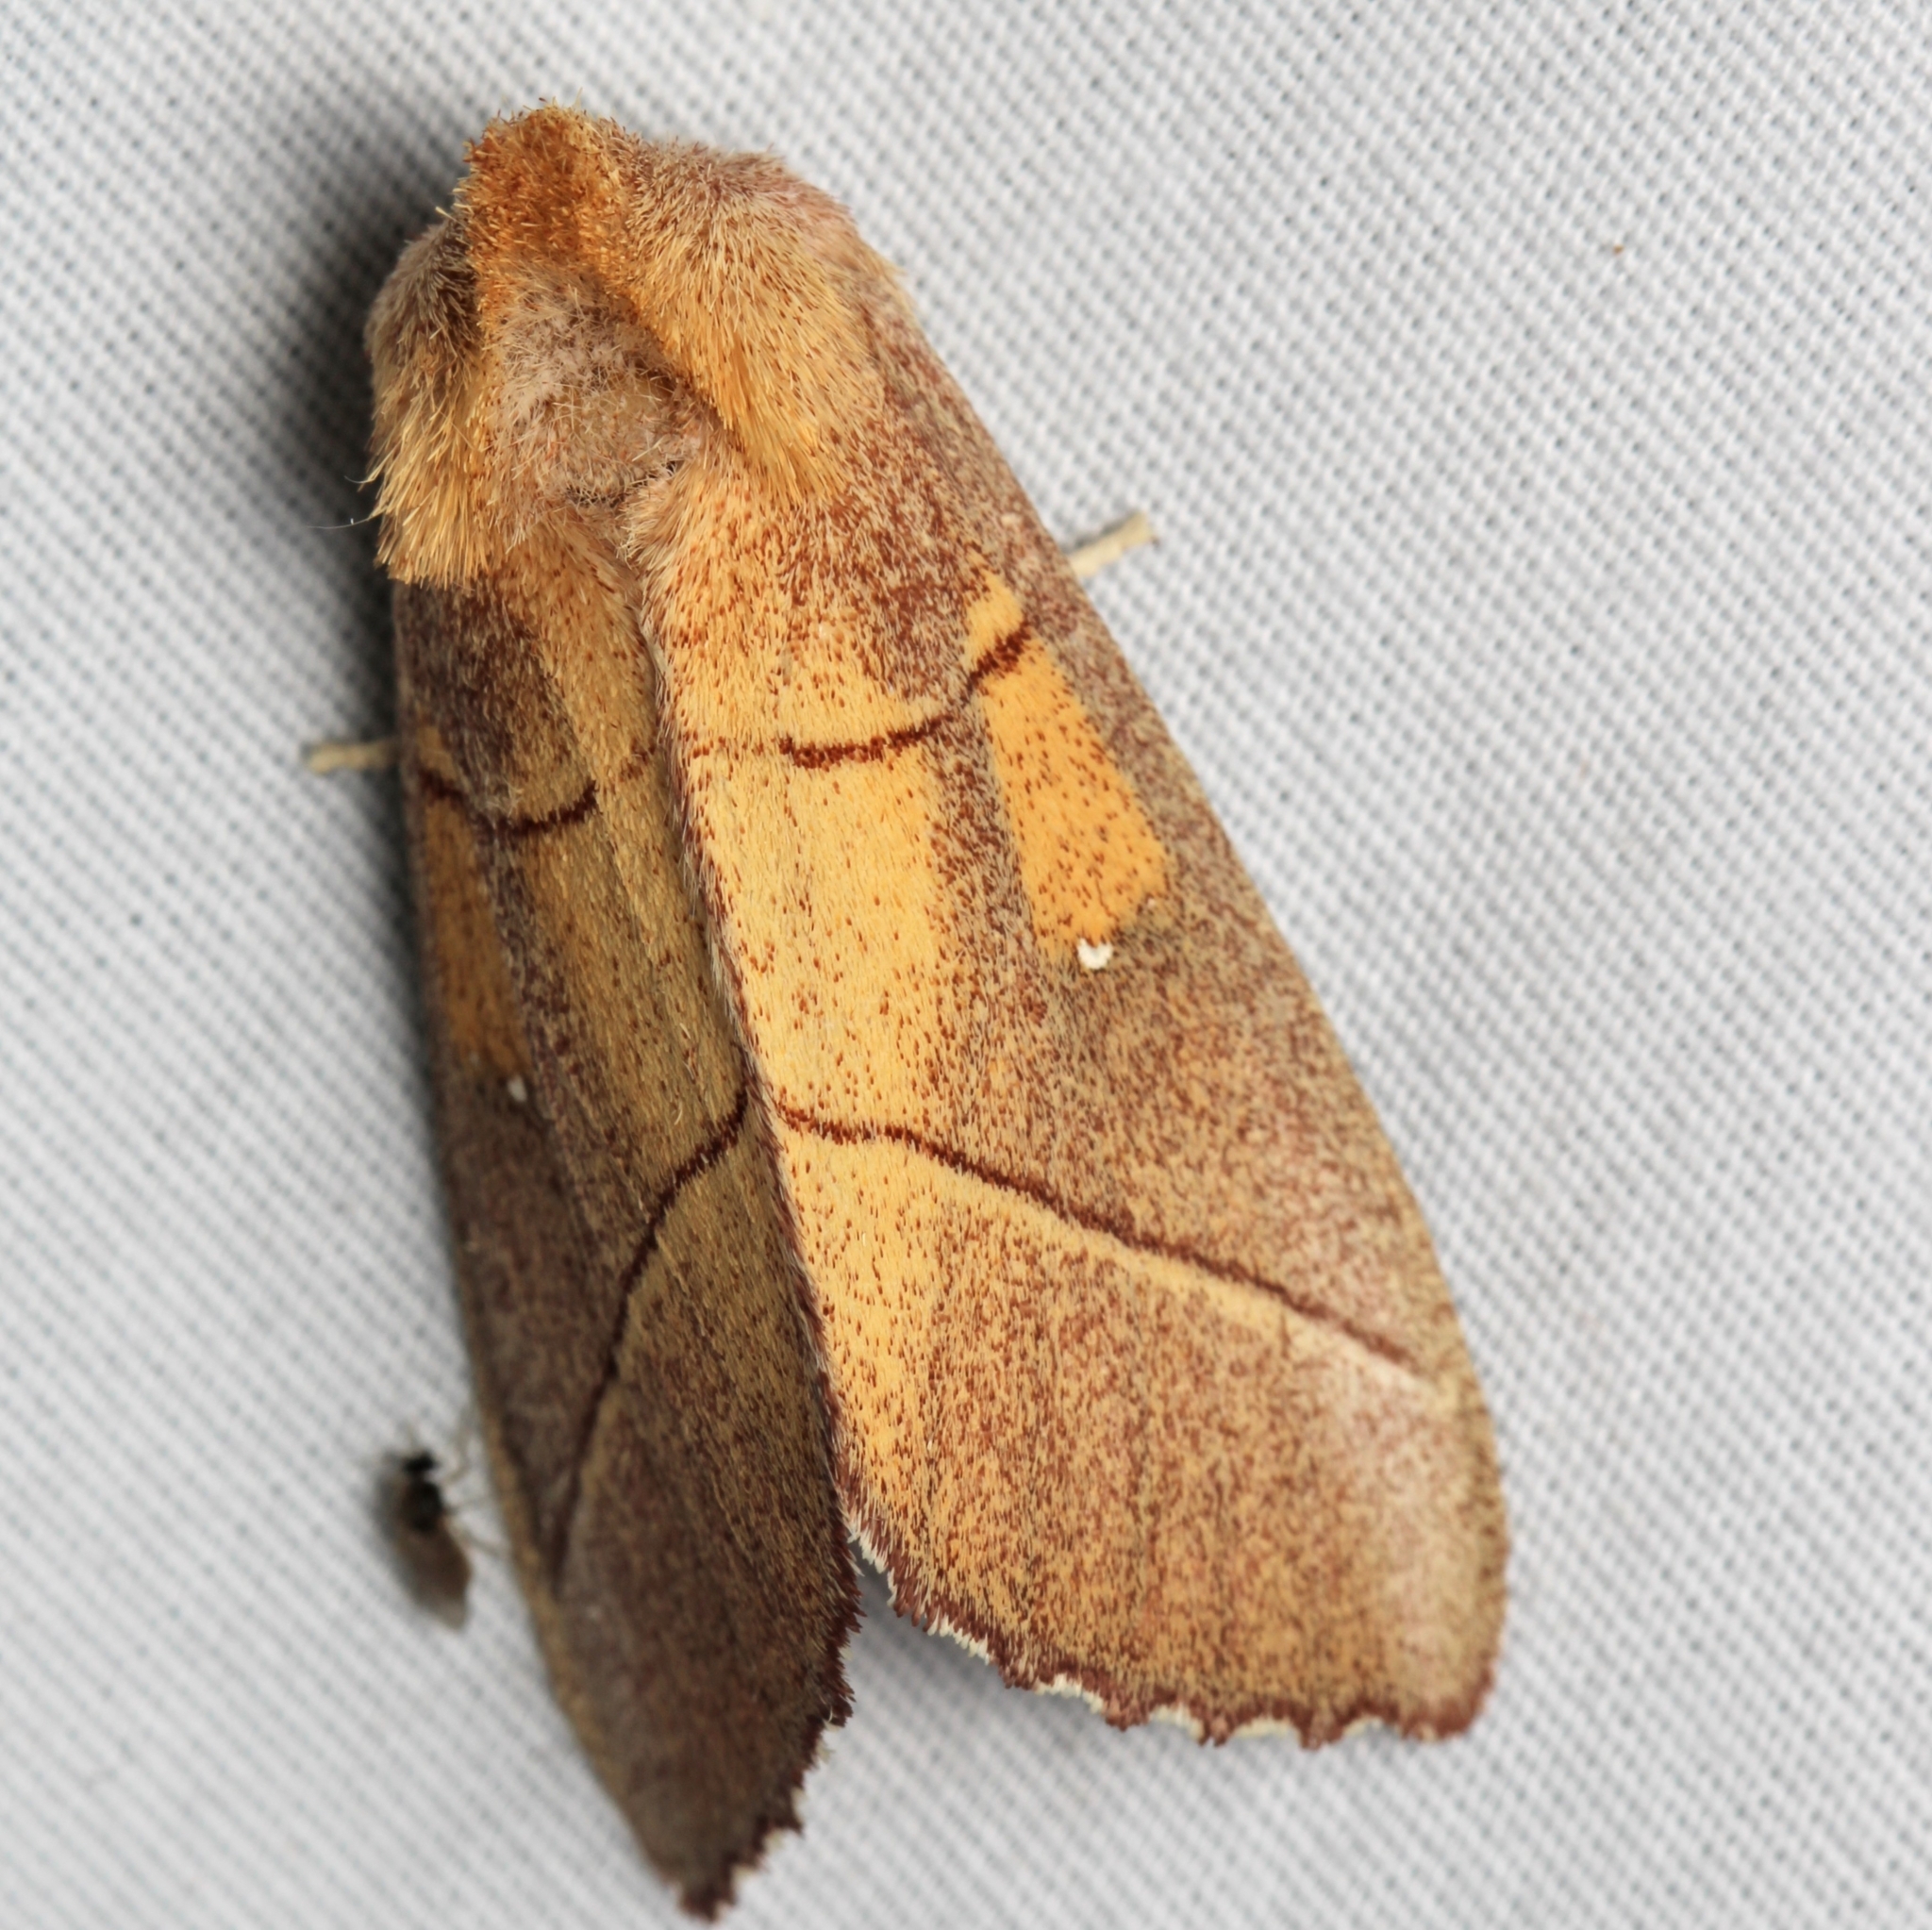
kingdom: Animalia
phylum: Arthropoda
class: Insecta
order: Lepidoptera
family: Notodontidae
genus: Nadata
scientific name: Nadata gibbosa
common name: White-dotted prominent
